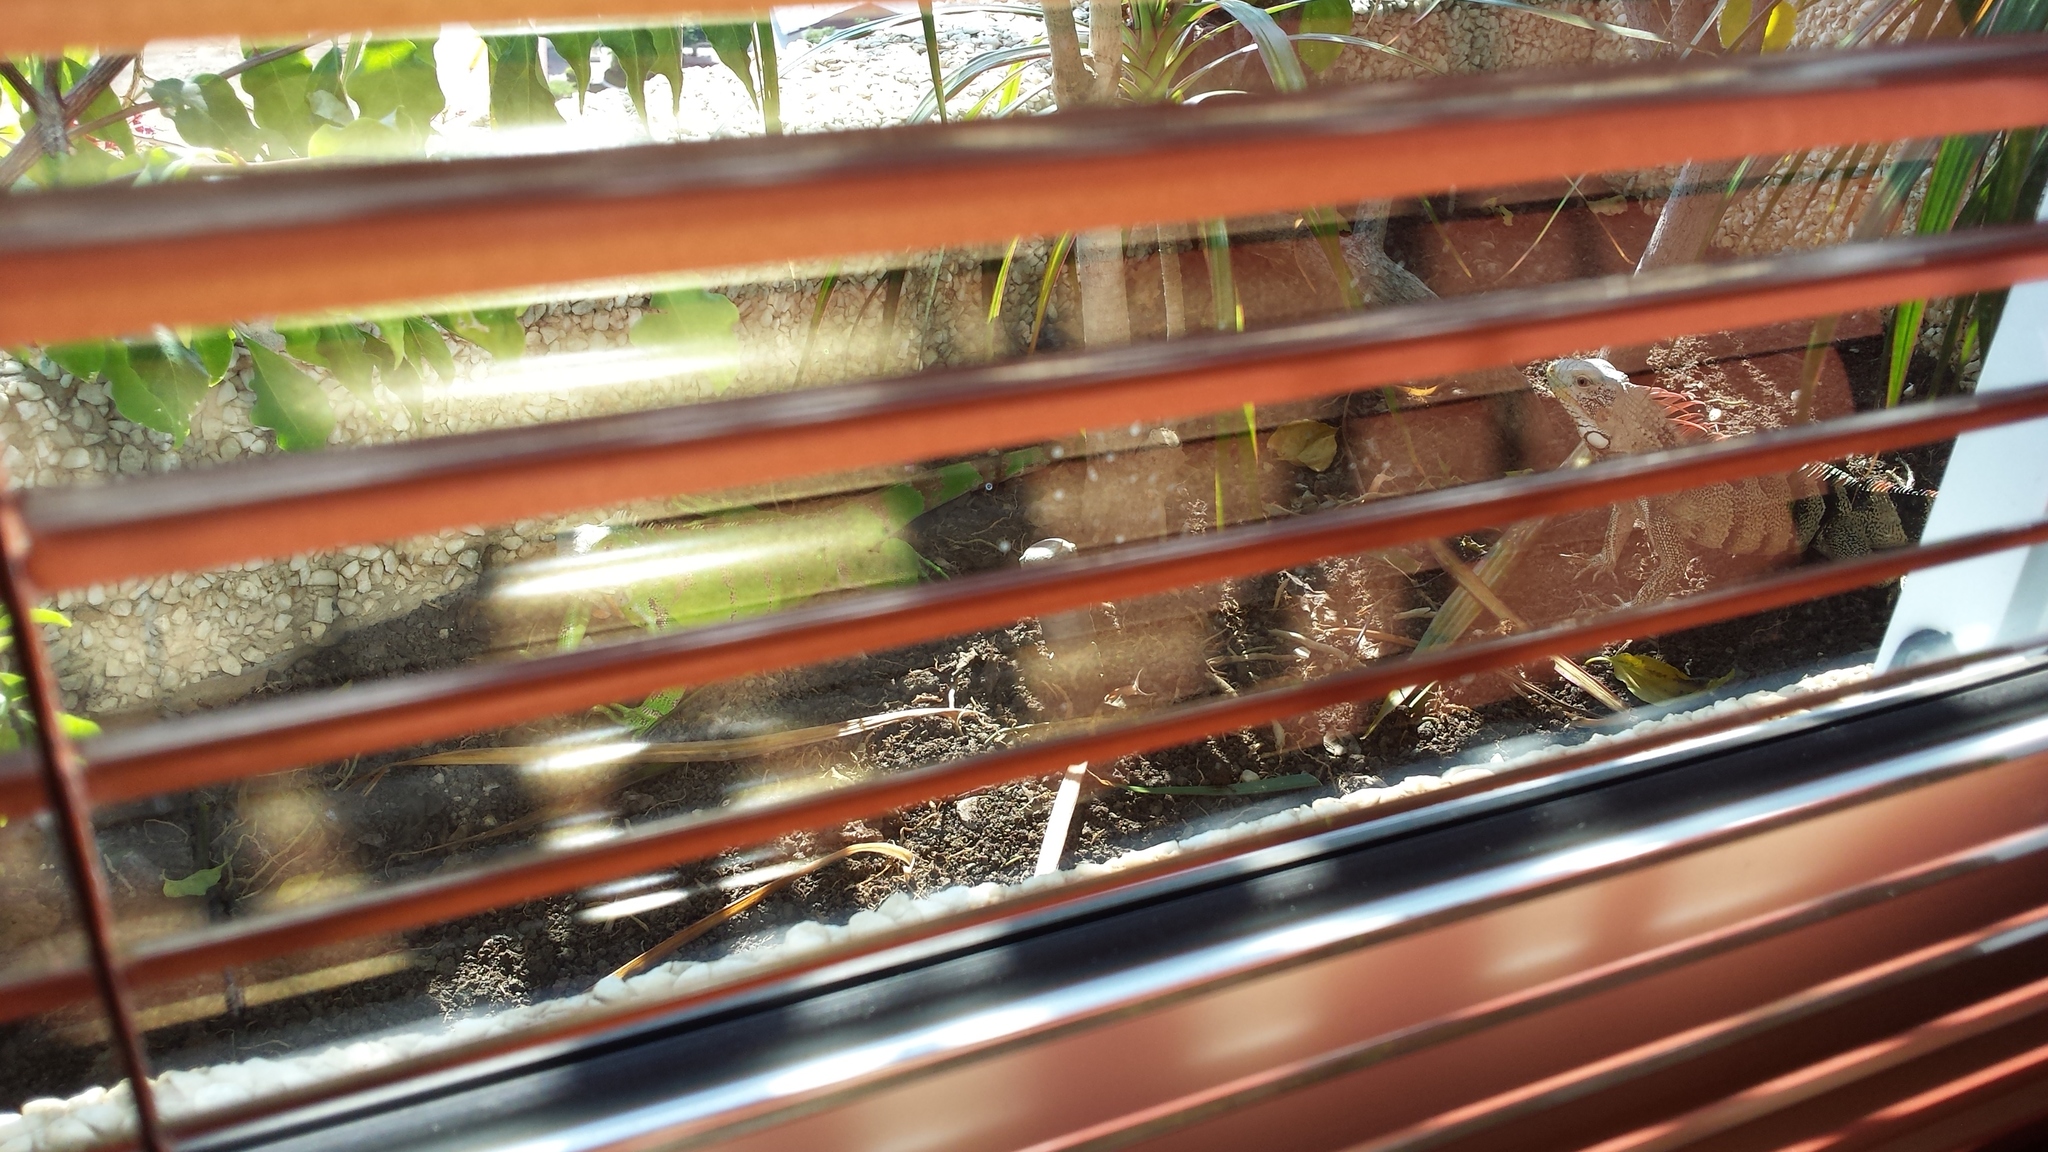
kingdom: Animalia
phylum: Chordata
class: Squamata
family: Iguanidae
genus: Iguana
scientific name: Iguana iguana
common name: Green iguana
